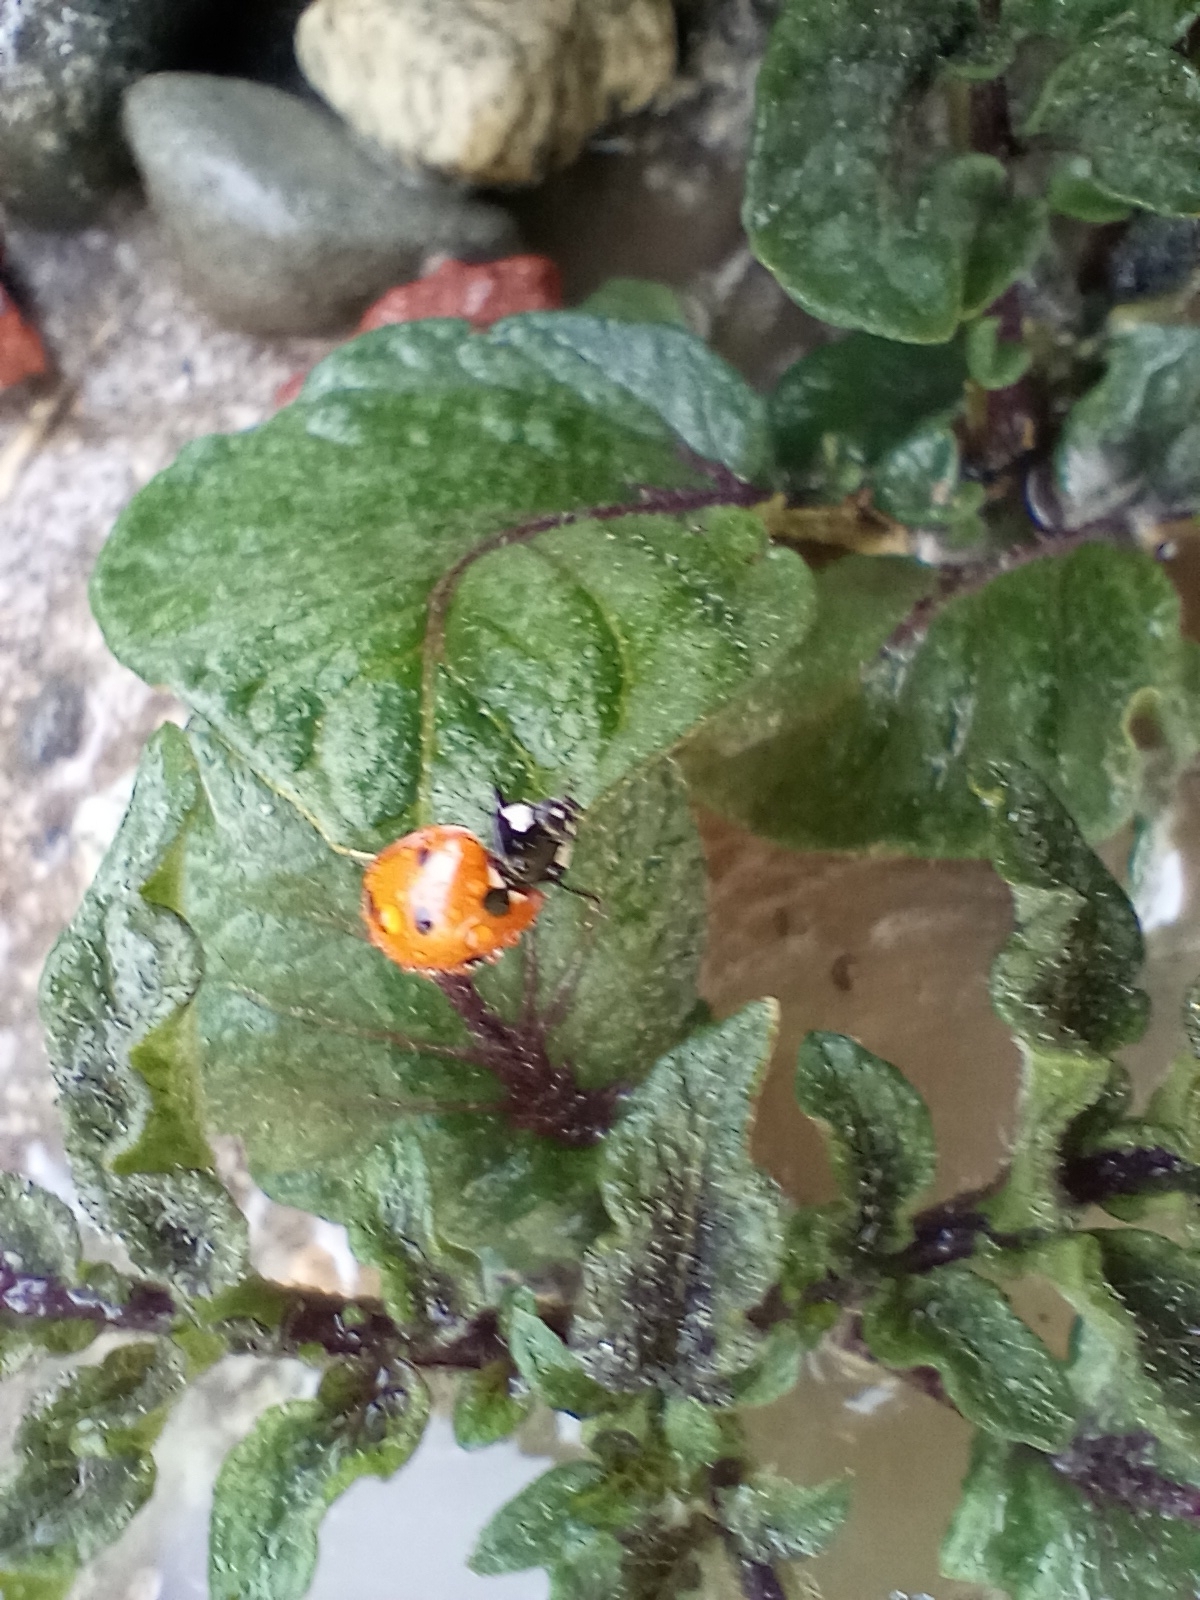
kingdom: Animalia
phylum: Arthropoda
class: Insecta
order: Coleoptera
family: Coccinellidae
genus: Coccinella
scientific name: Coccinella septempunctata
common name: Sevenspotted lady beetle
